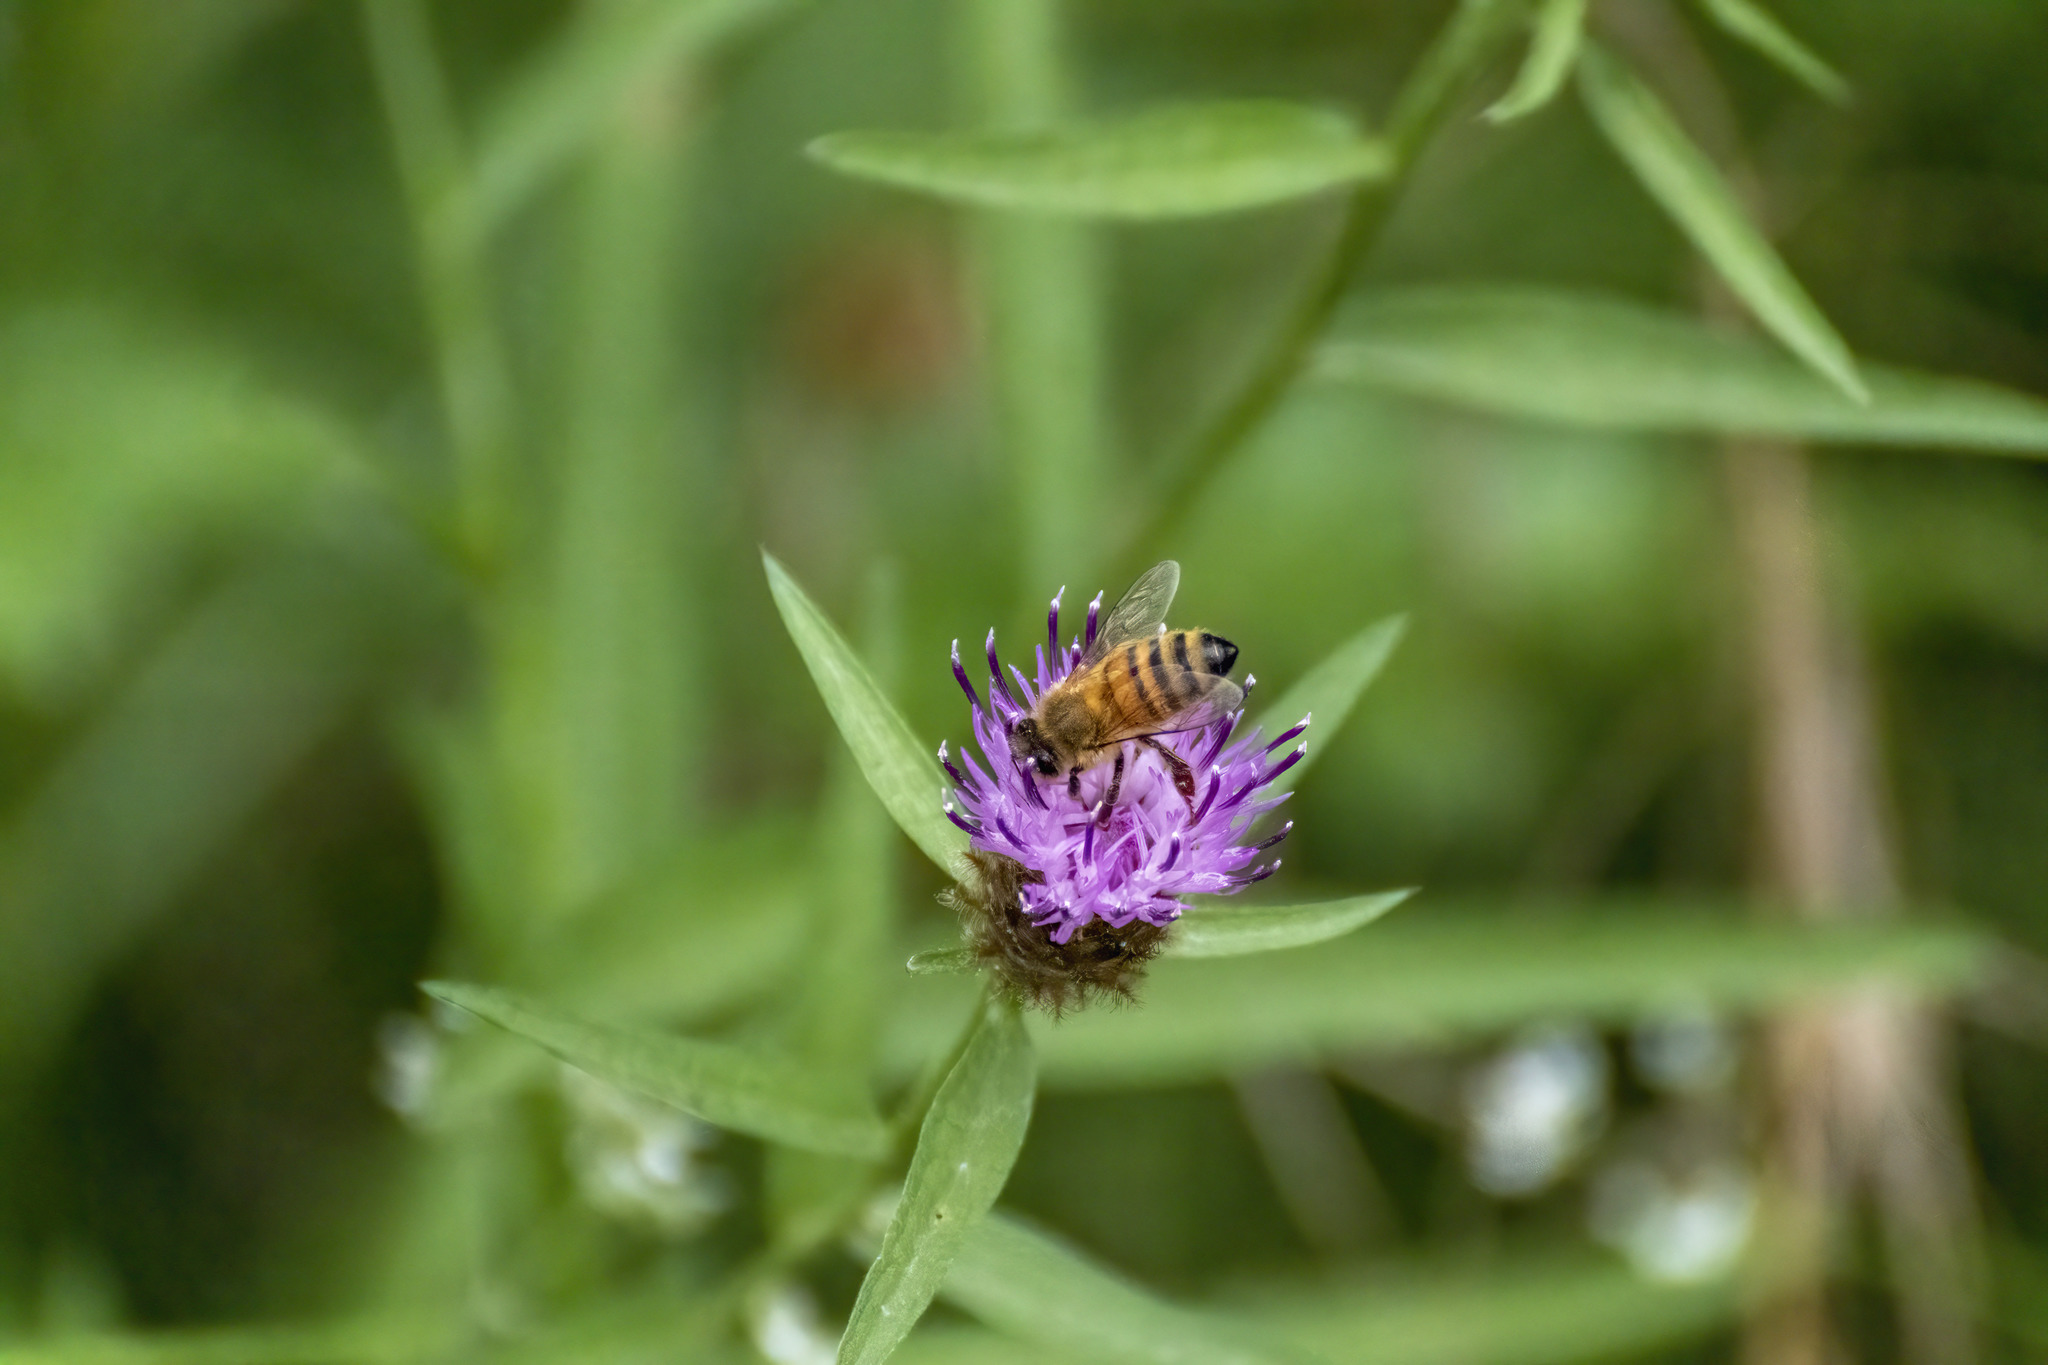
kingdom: Animalia
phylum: Arthropoda
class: Insecta
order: Hymenoptera
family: Apidae
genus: Apis
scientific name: Apis mellifera
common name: Honey bee
